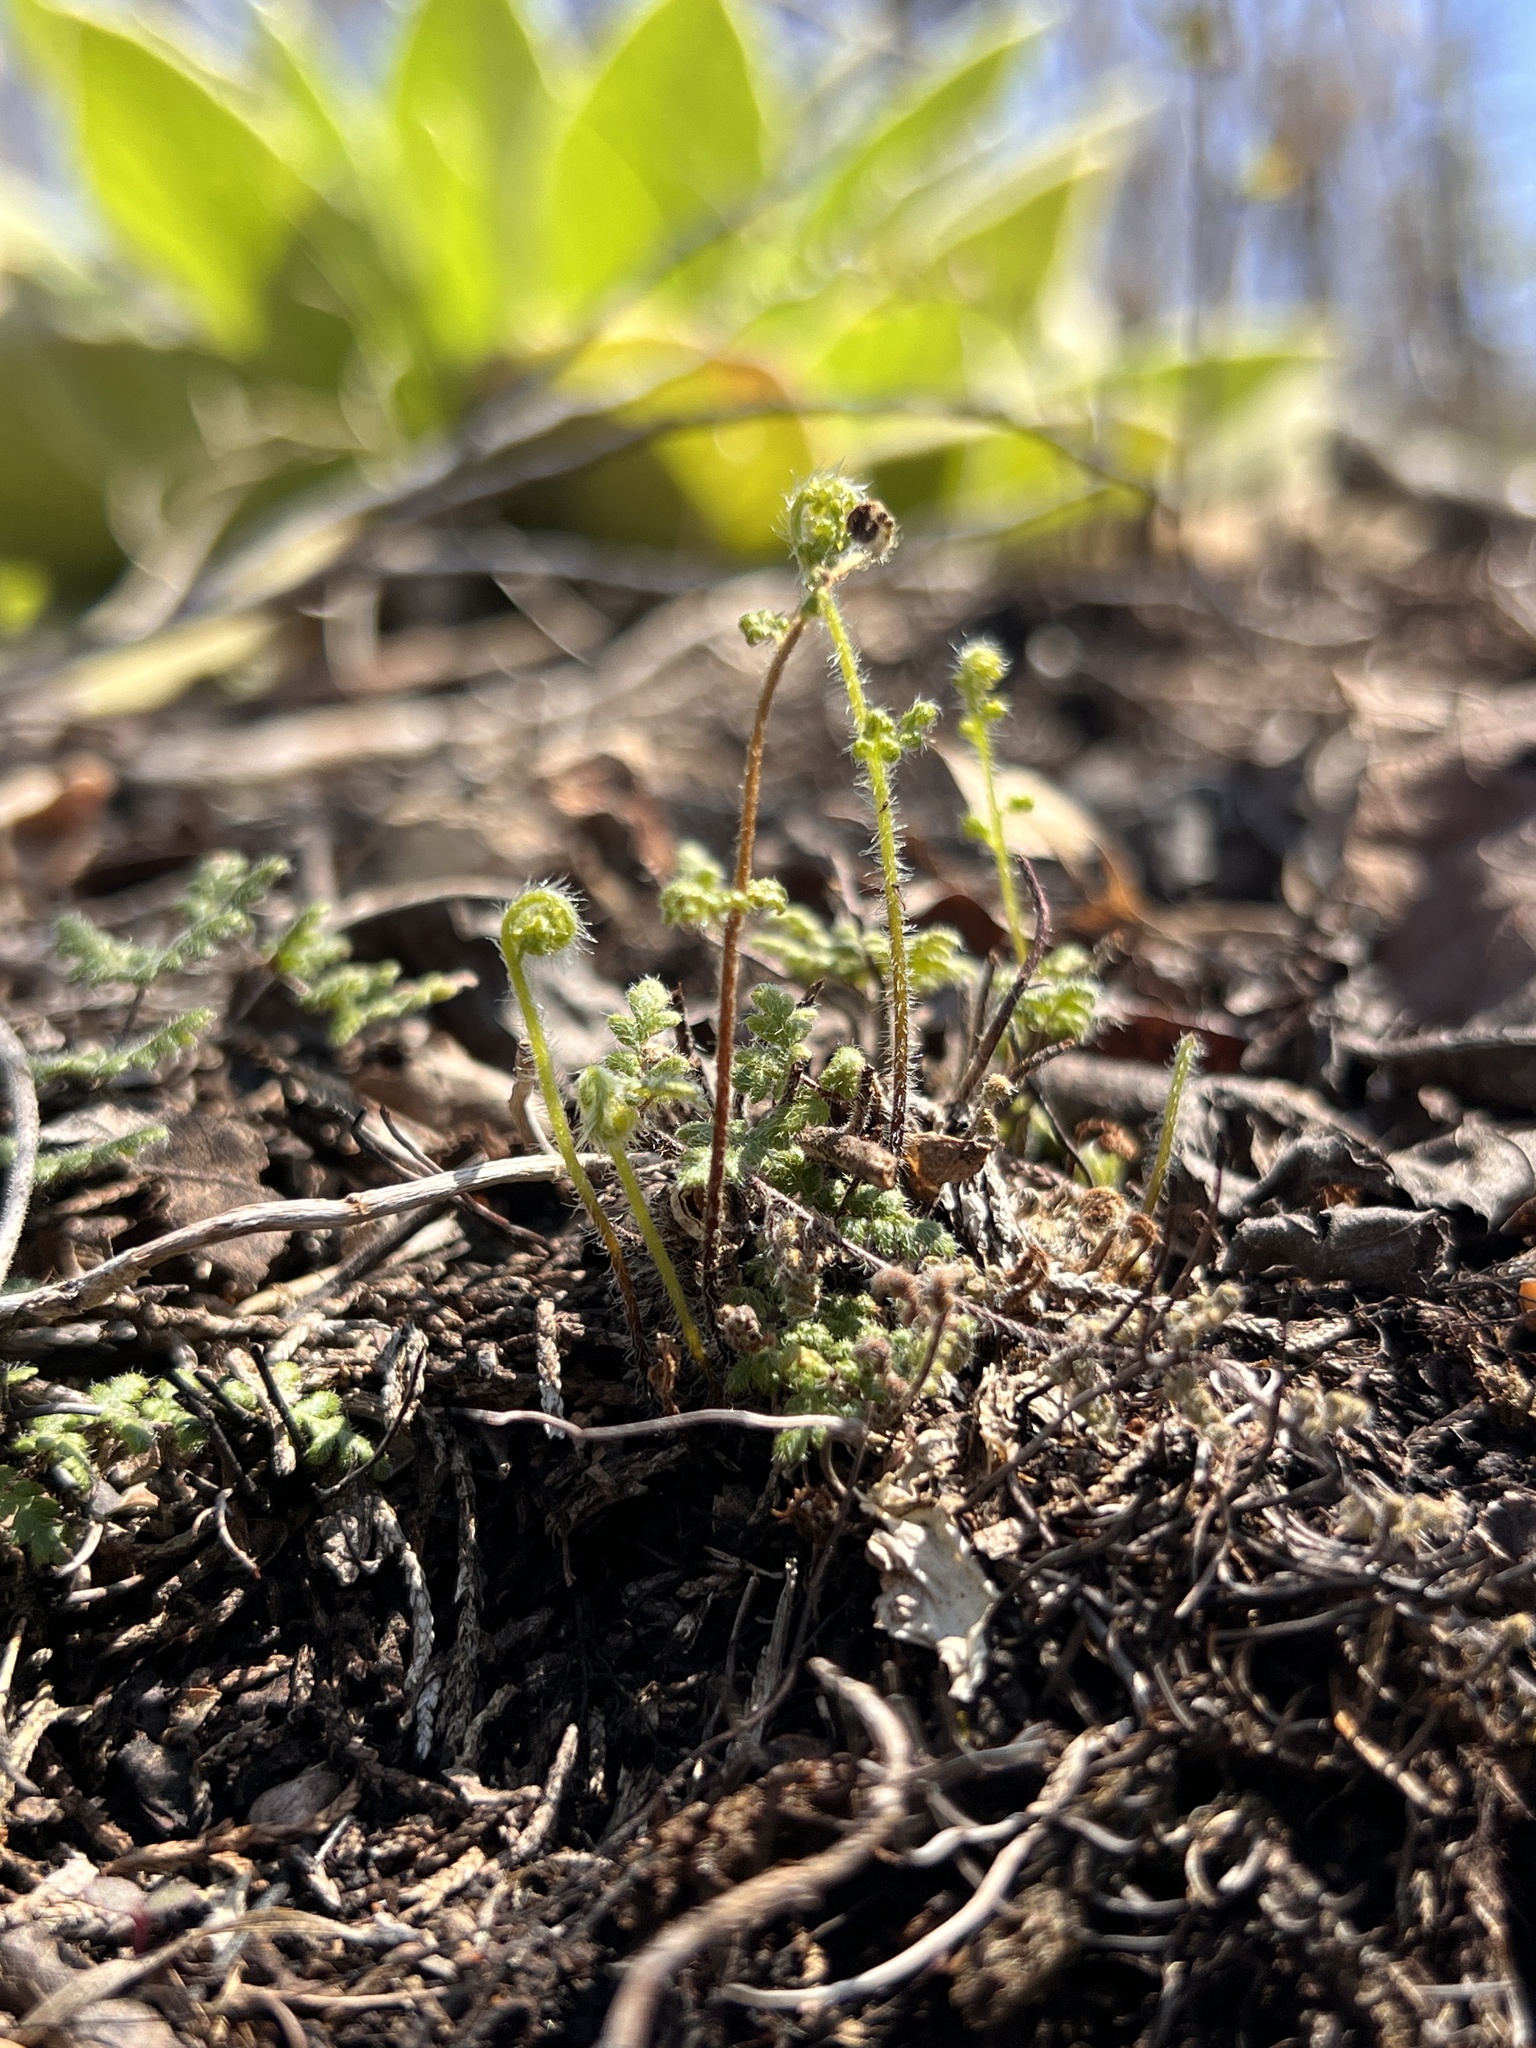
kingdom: Plantae
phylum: Tracheophyta
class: Polypodiopsida
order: Polypodiales
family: Pteridaceae
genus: Myriopteris
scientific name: Myriopteris lanosa
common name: Hairy lip fern
